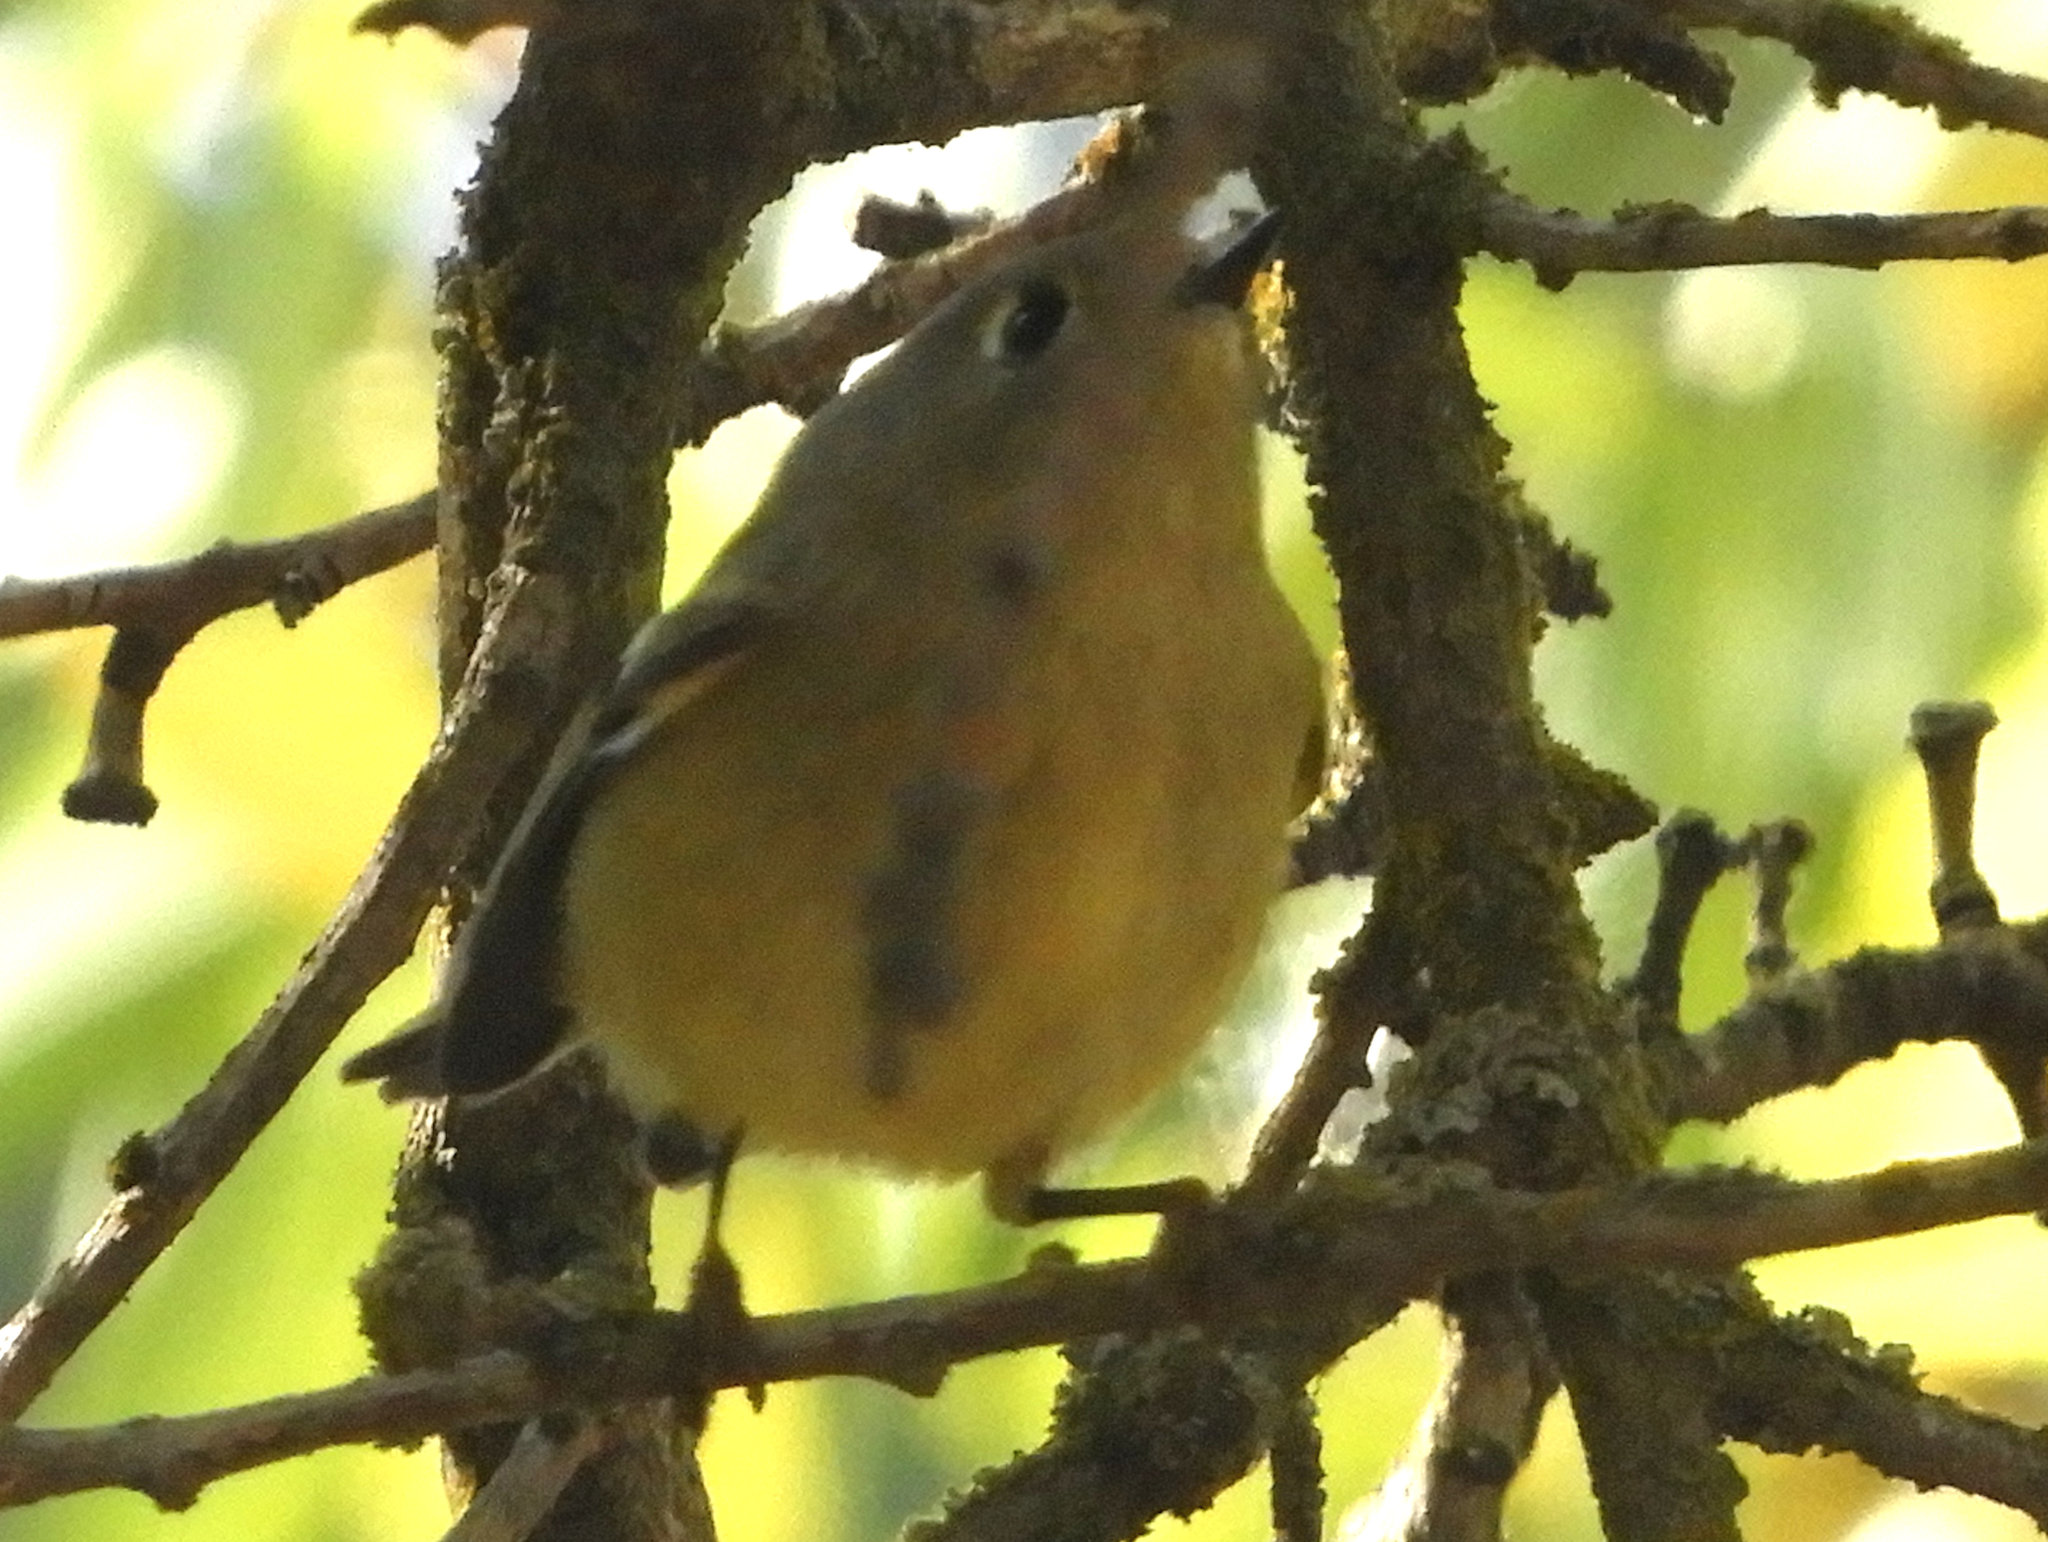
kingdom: Animalia
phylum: Chordata
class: Aves
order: Passeriformes
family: Regulidae
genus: Regulus
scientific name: Regulus calendula
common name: Ruby-crowned kinglet
